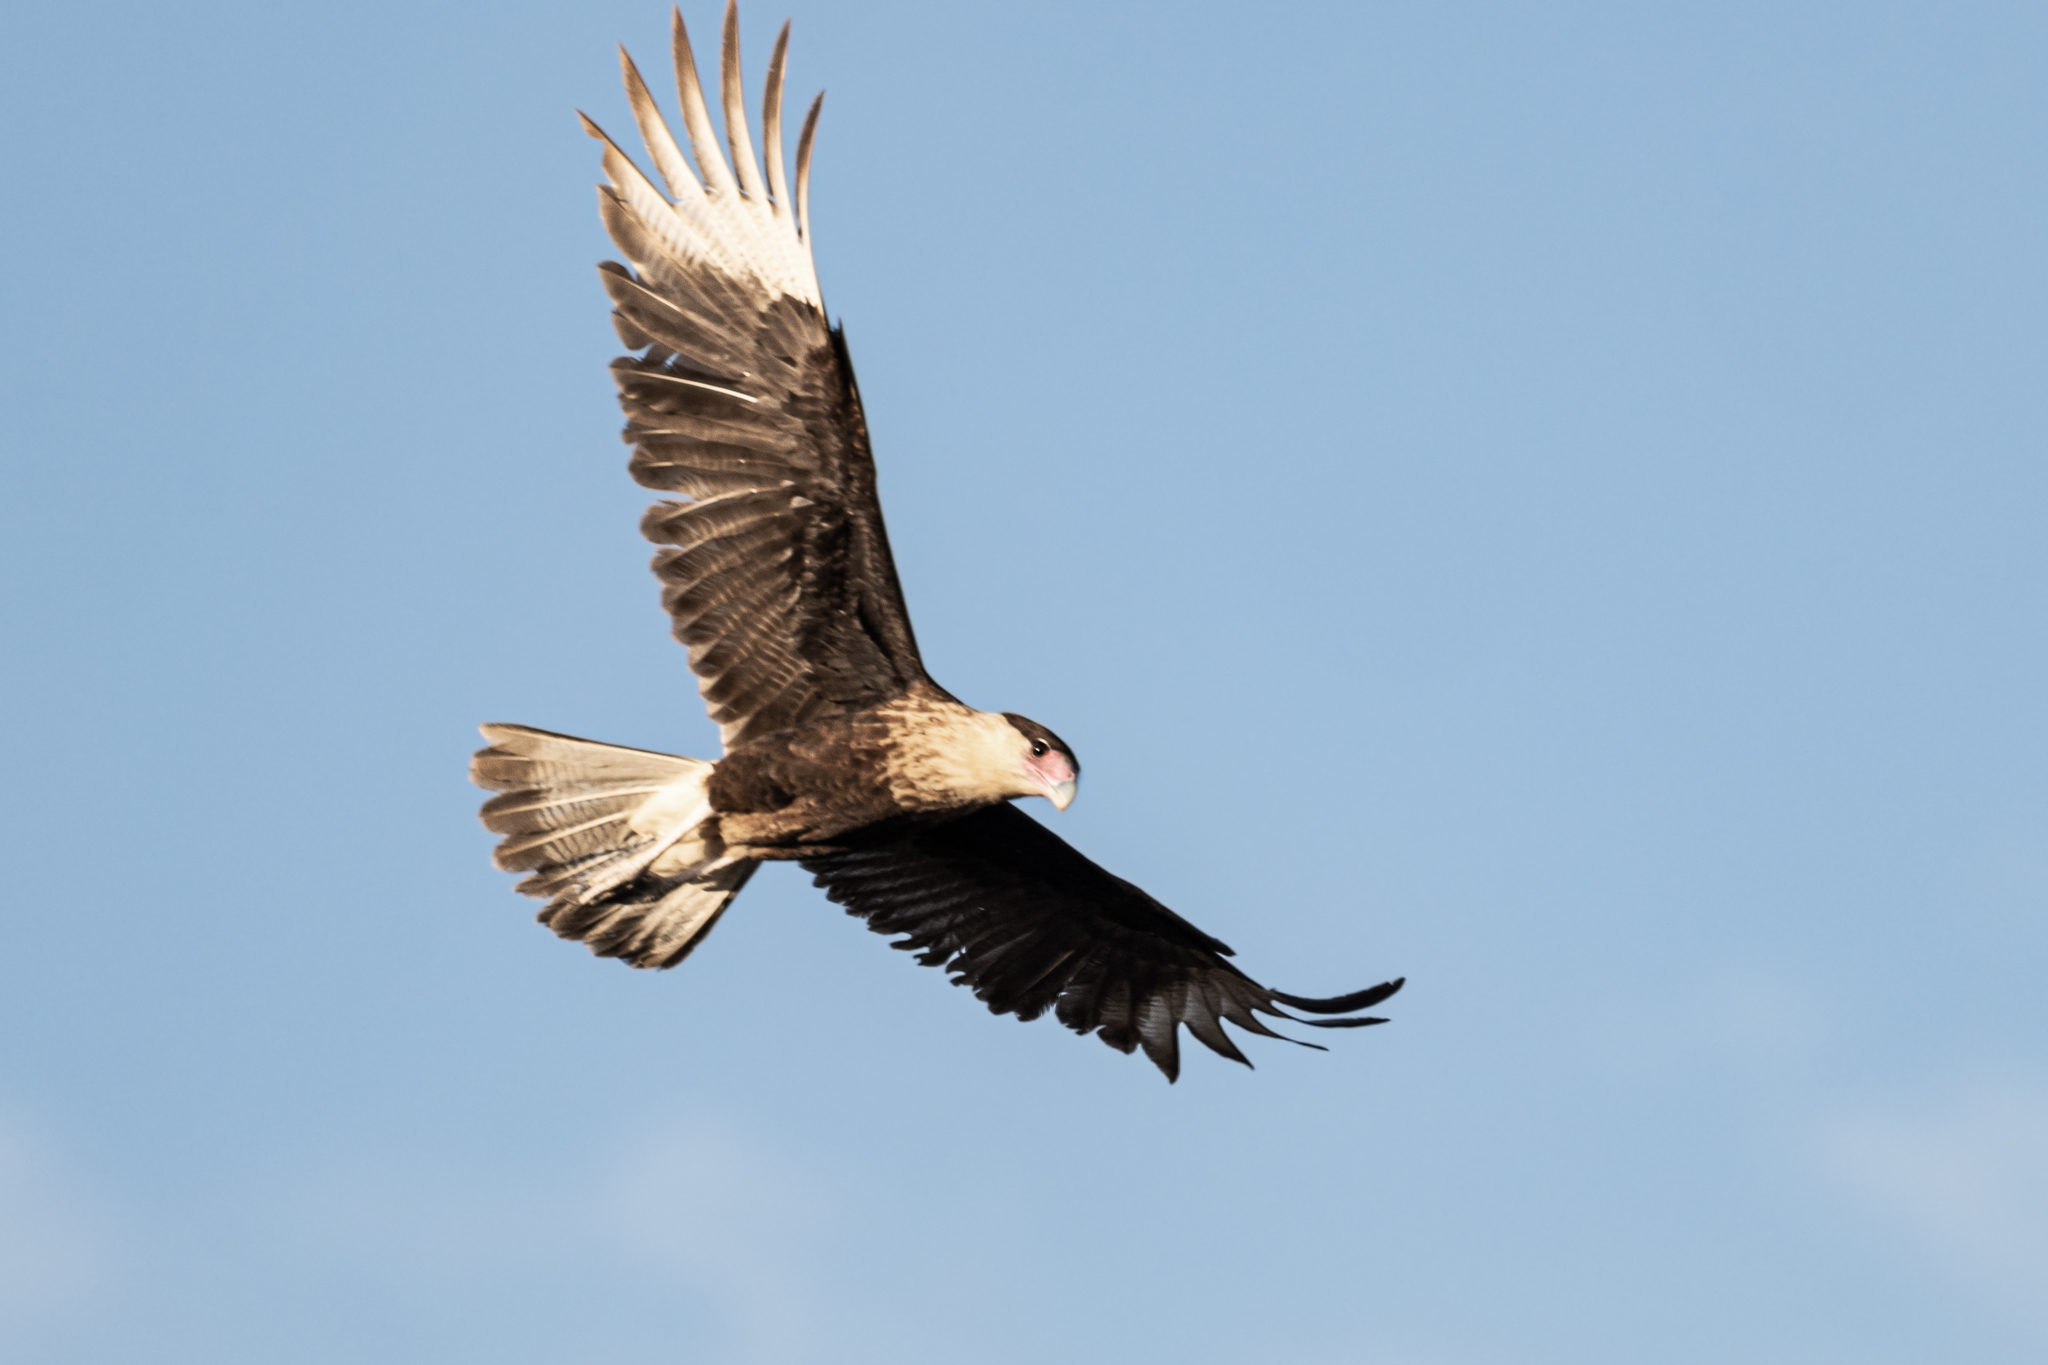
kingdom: Animalia
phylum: Chordata
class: Aves
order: Falconiformes
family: Falconidae
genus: Caracara
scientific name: Caracara plancus
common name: Southern caracara
